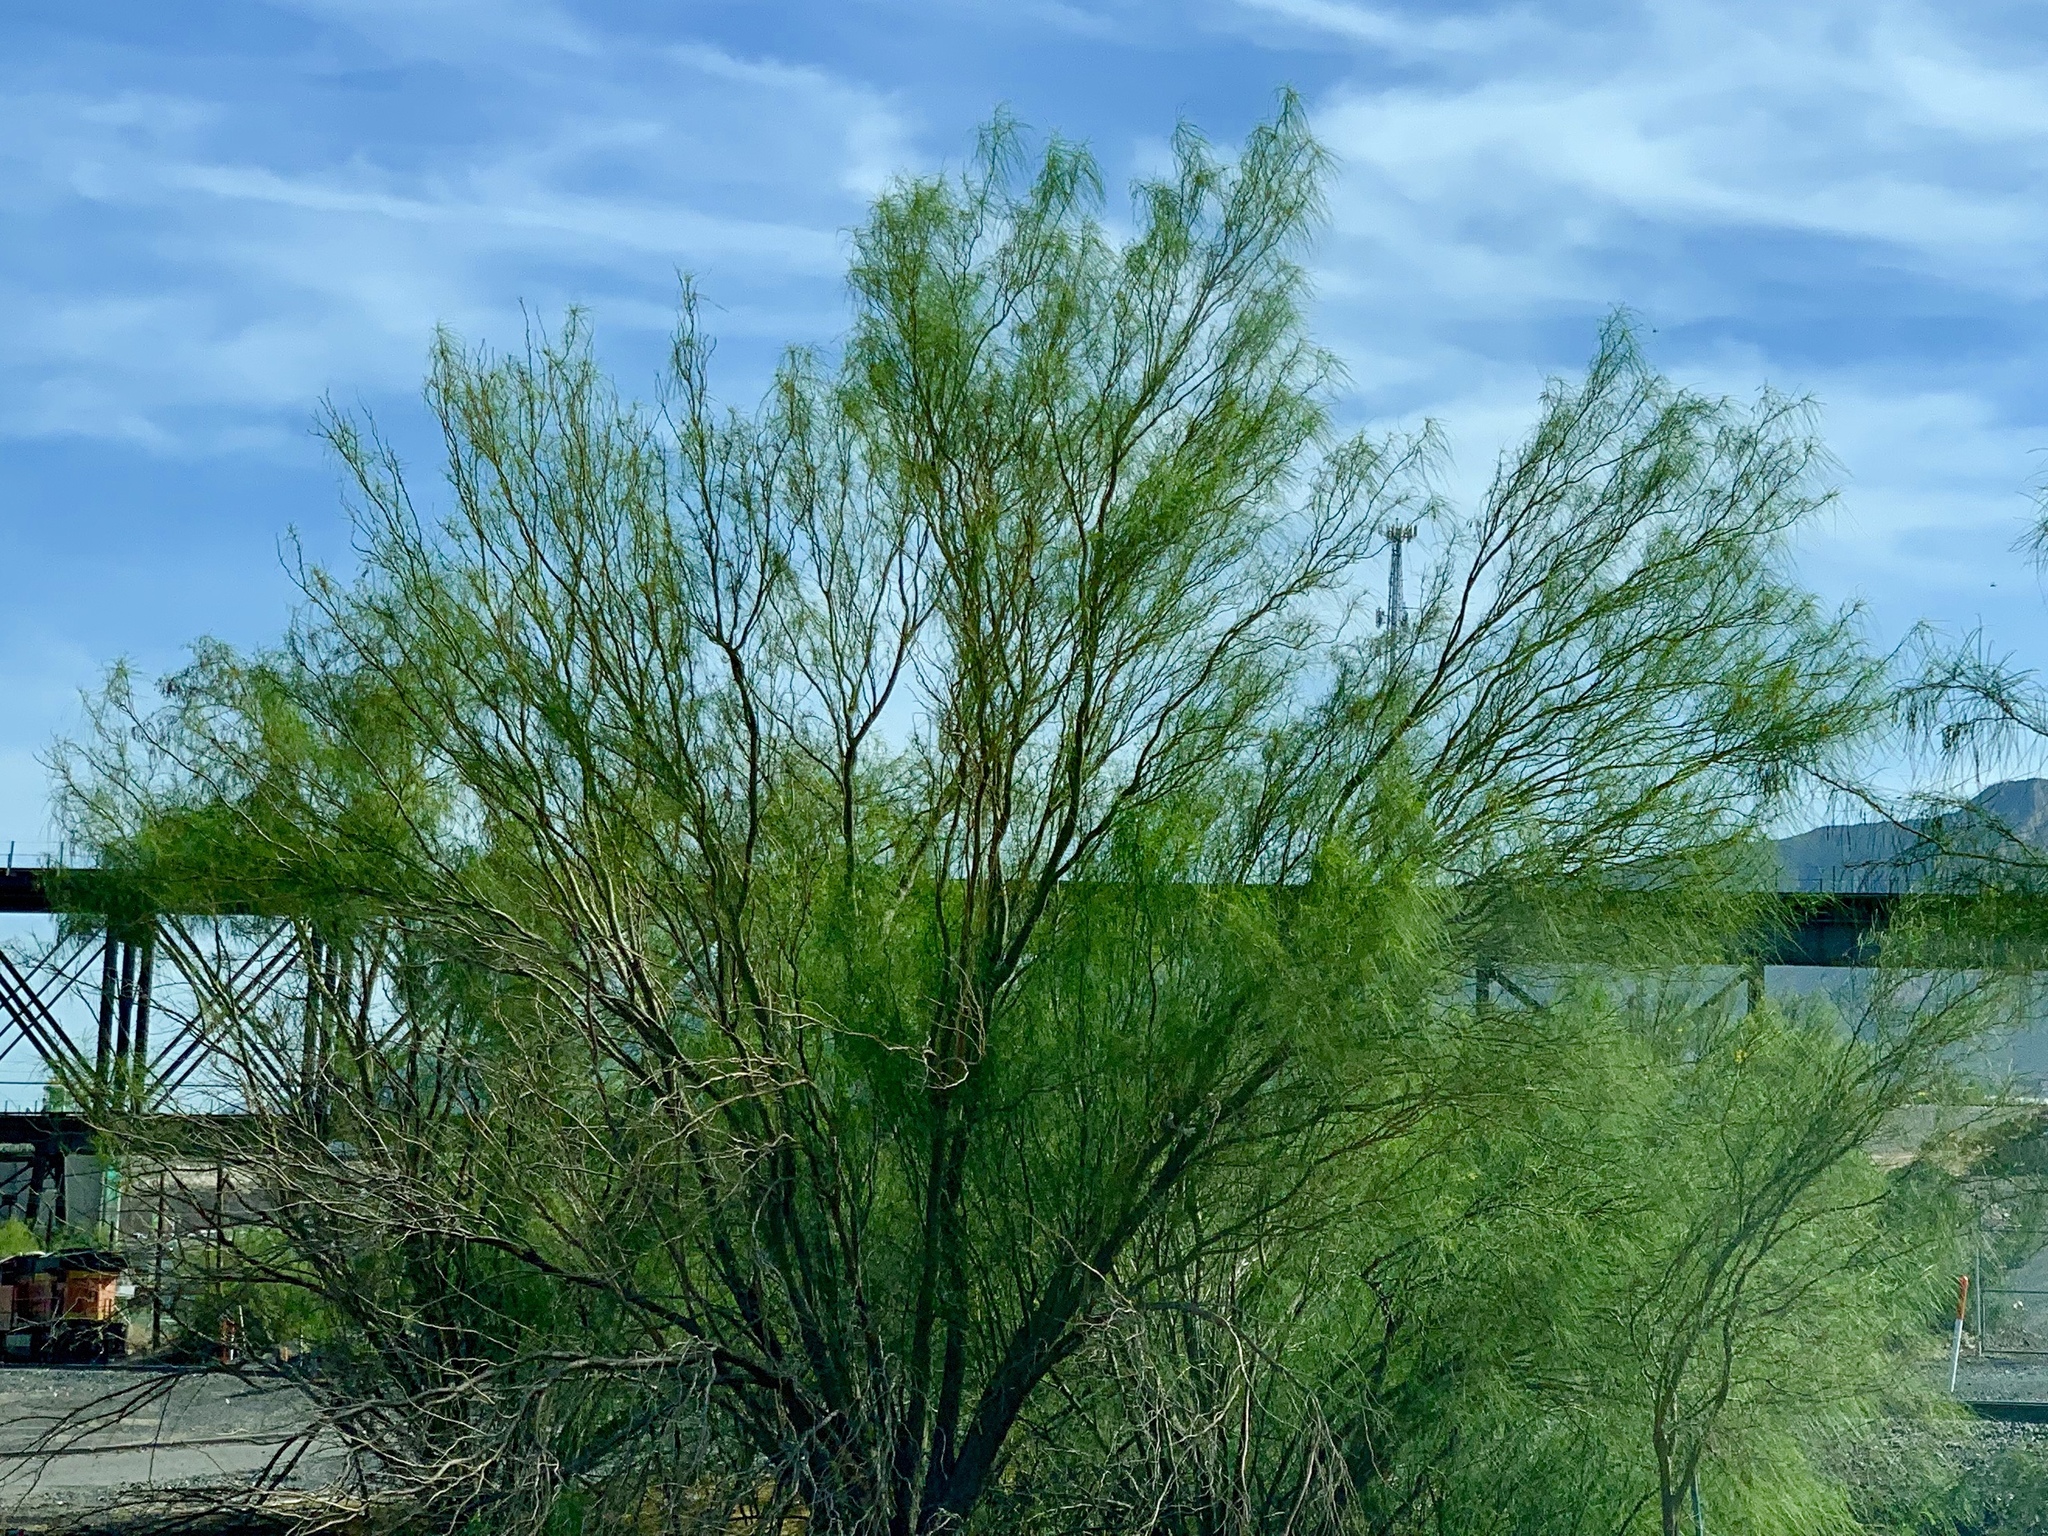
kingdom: Plantae
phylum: Tracheophyta
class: Magnoliopsida
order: Fabales
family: Fabaceae
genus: Parkinsonia
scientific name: Parkinsonia aculeata
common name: Jerusalem thorn
